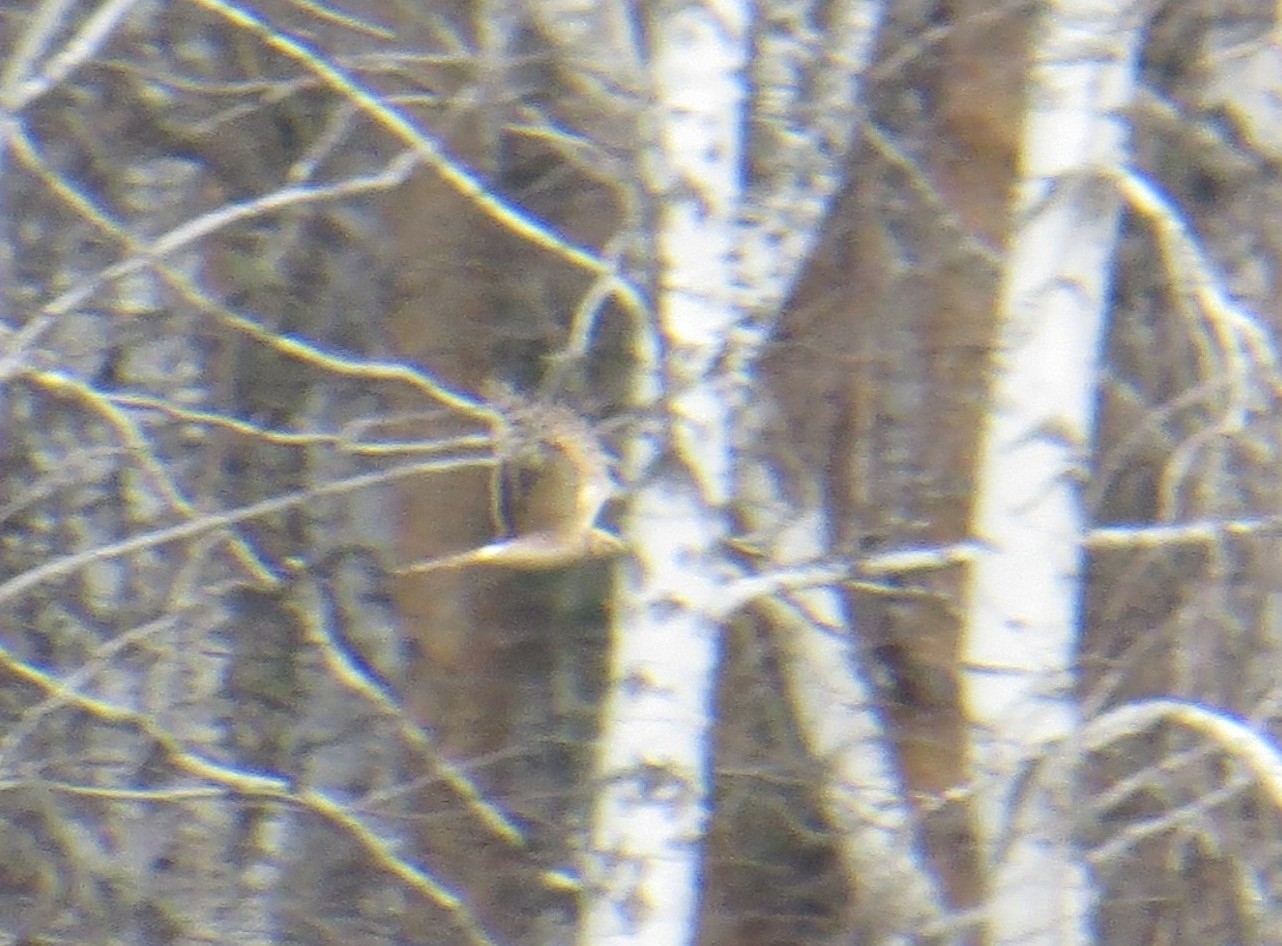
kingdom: Animalia
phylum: Chordata
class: Aves
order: Accipitriformes
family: Accipitridae
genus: Circus
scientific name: Circus macrourus
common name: Pallid harrier
